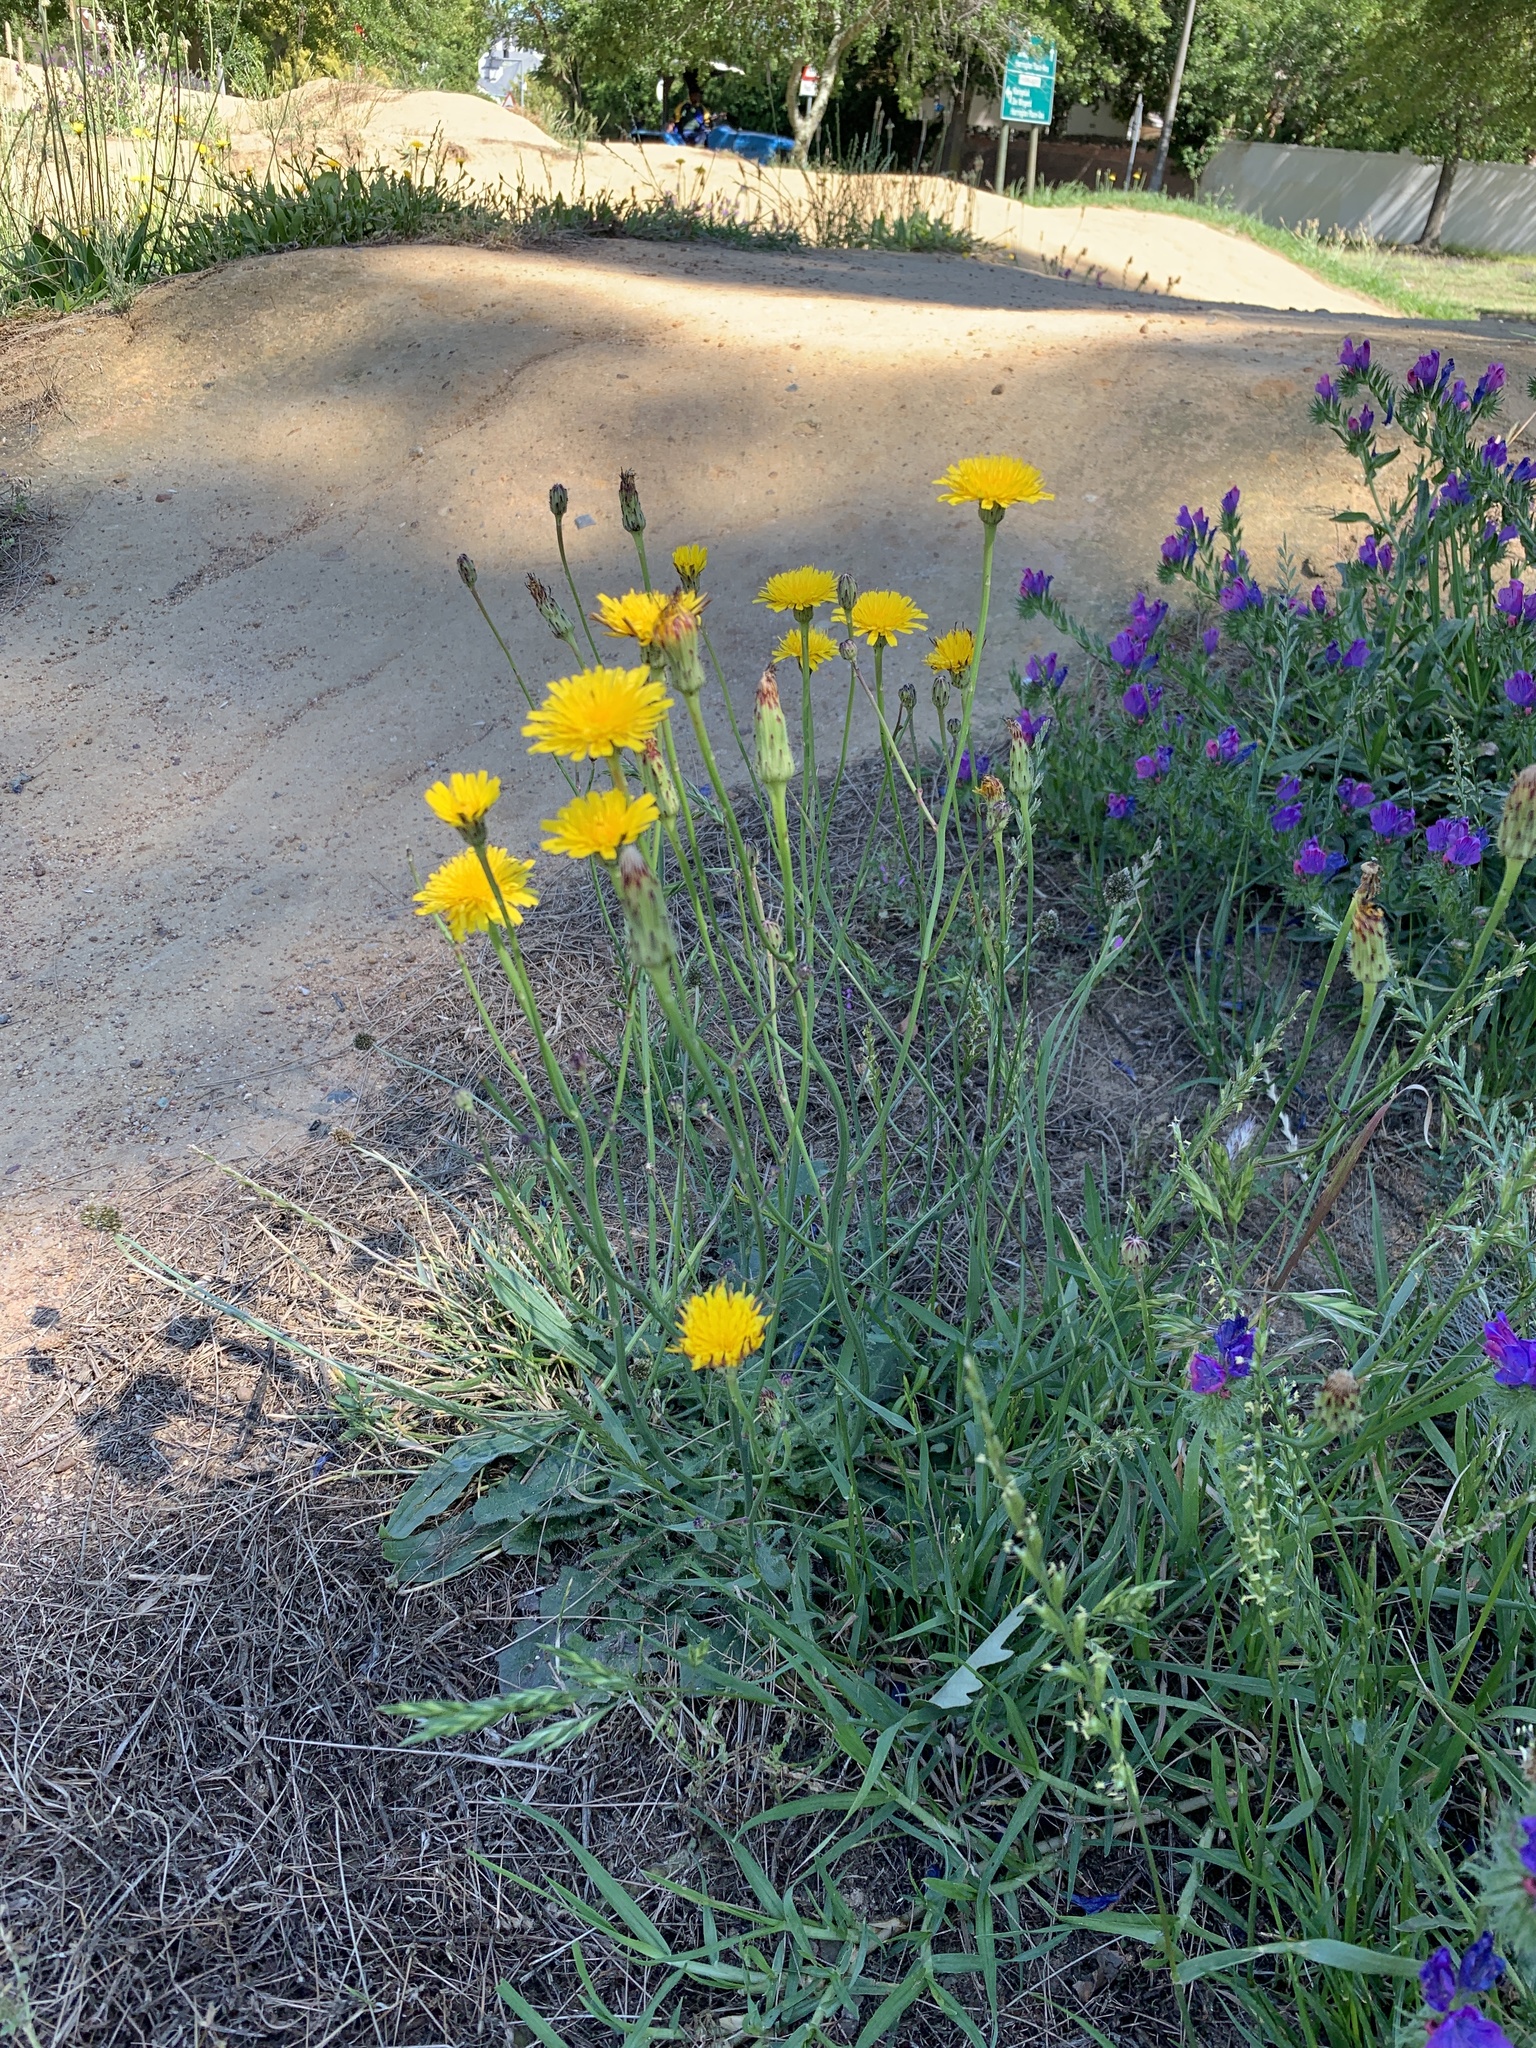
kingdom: Plantae
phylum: Tracheophyta
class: Magnoliopsida
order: Asterales
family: Asteraceae
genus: Hypochaeris
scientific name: Hypochaeris radicata
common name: Flatweed
